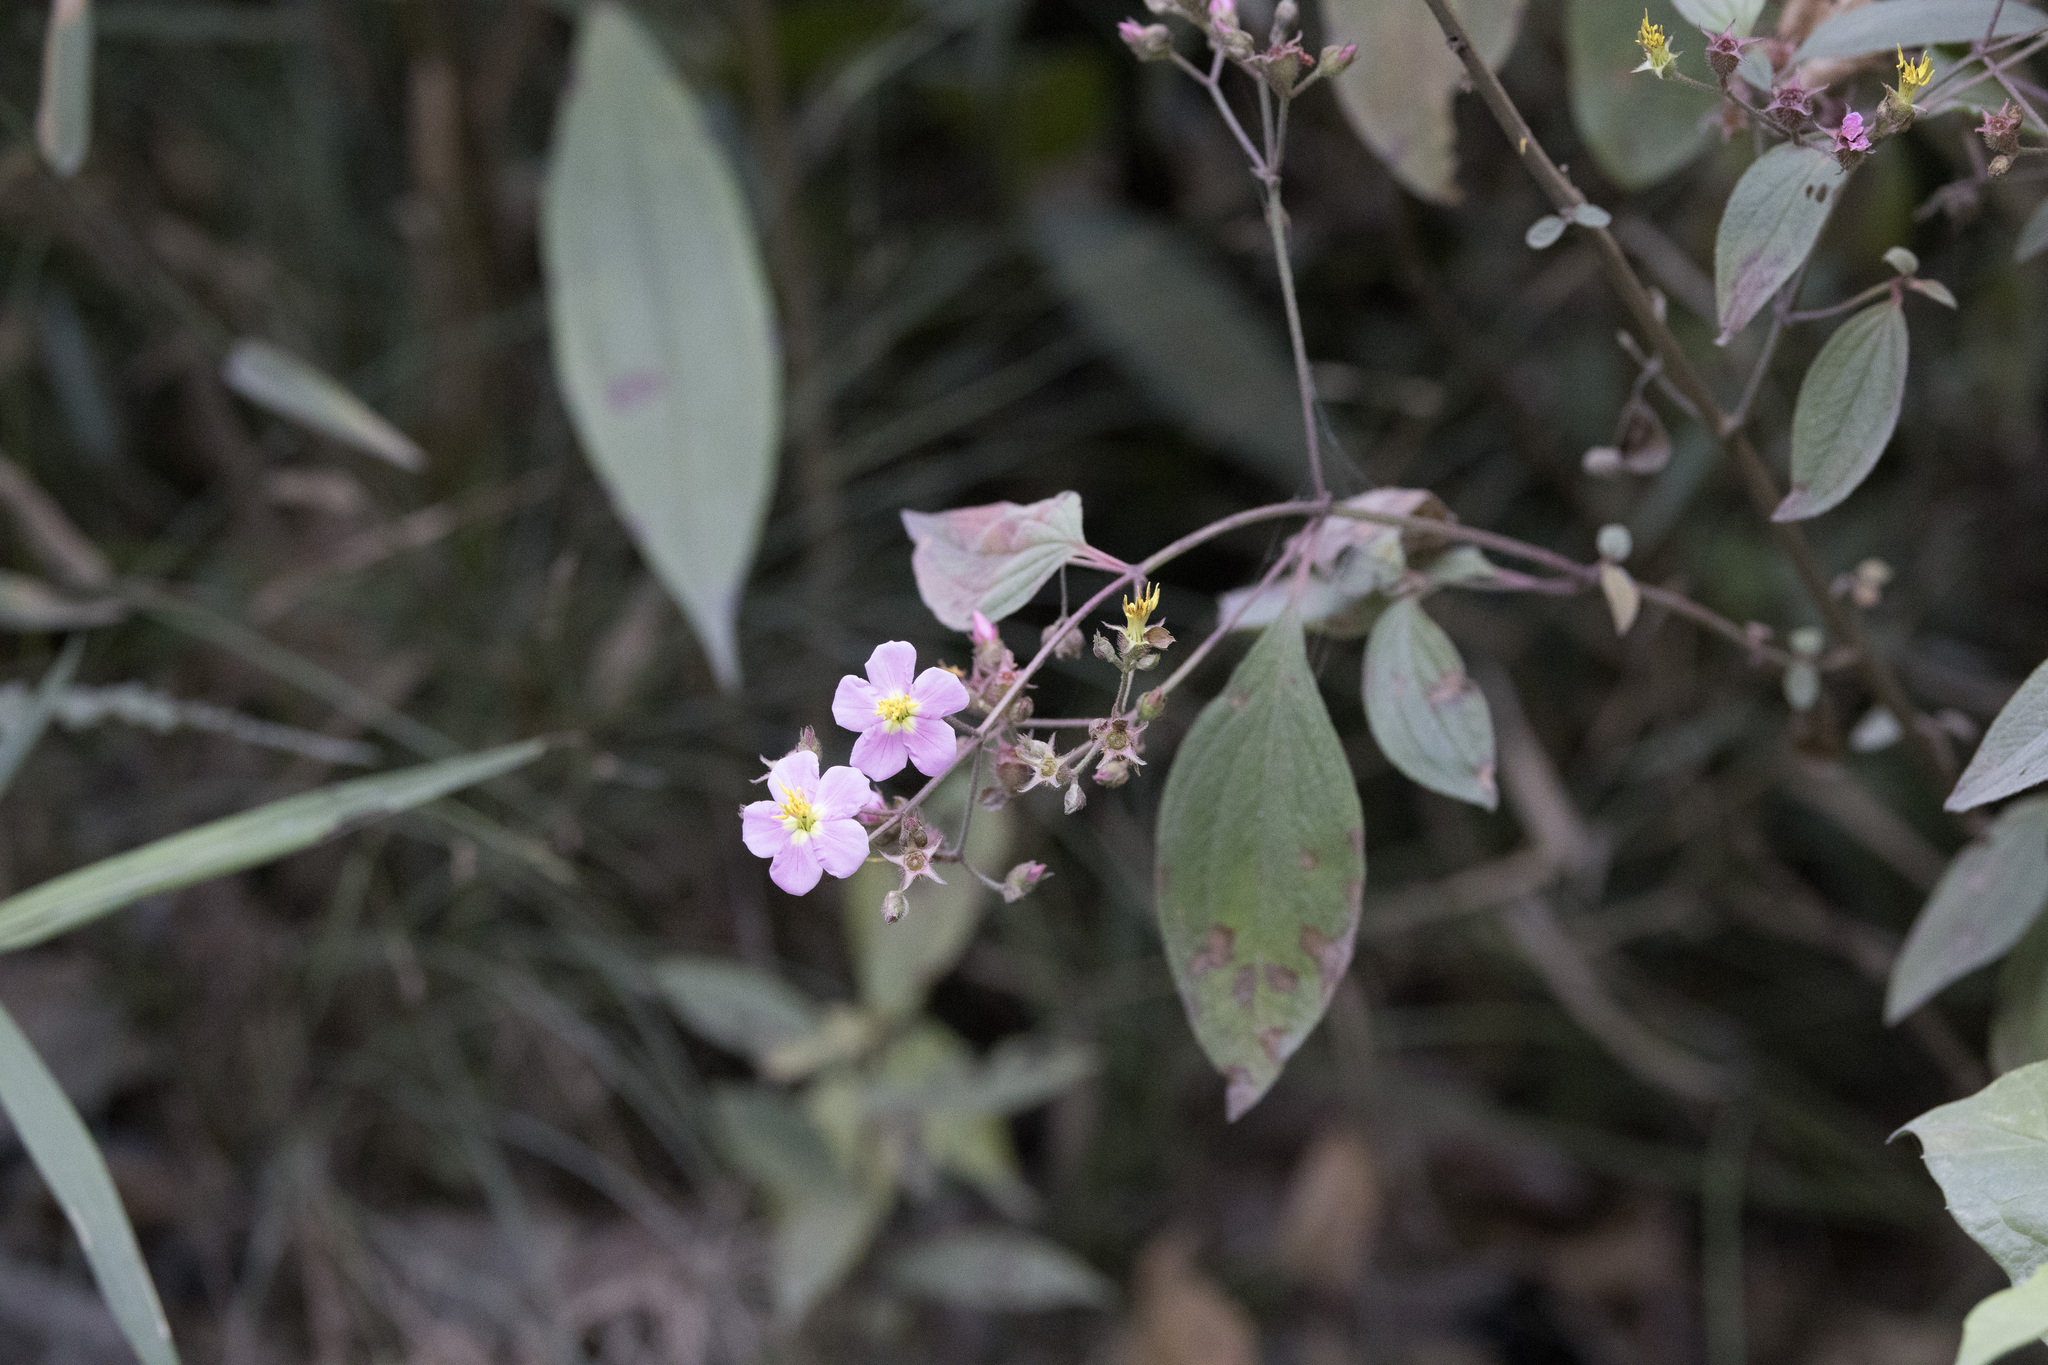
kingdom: Plantae
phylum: Tracheophyta
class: Magnoliopsida
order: Myrtales
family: Melastomataceae
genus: Chaetogastra
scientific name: Chaetogastra incarum
